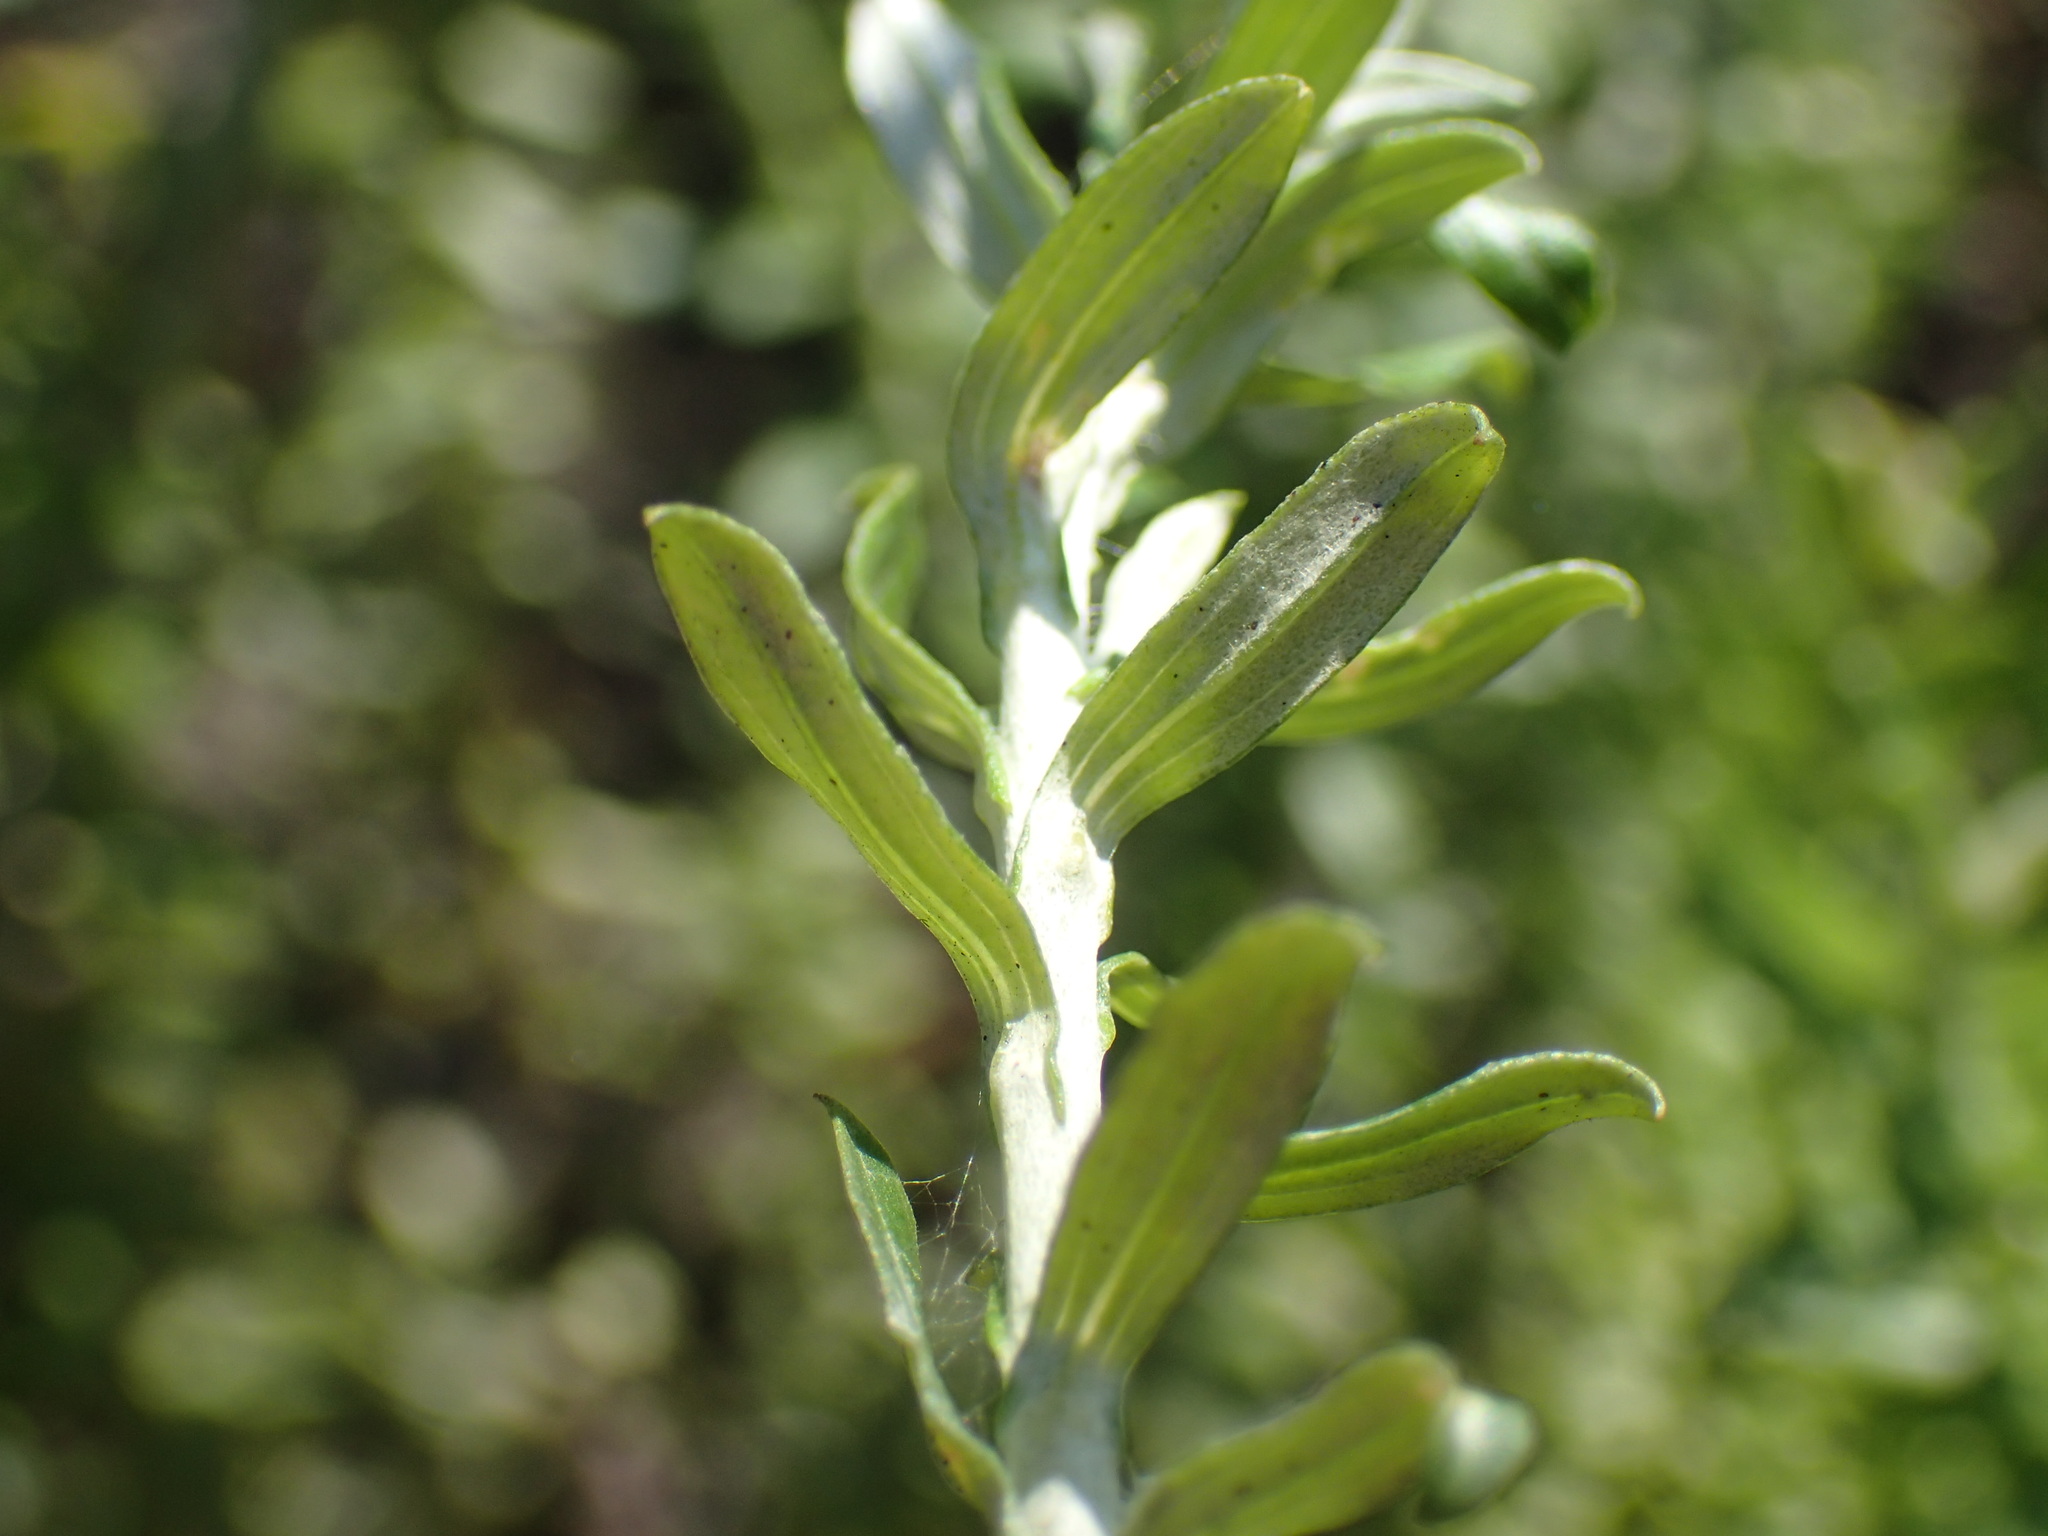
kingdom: Plantae
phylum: Tracheophyta
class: Magnoliopsida
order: Asterales
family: Asteraceae
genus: Helichrysum
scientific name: Helichrysum cymosum
